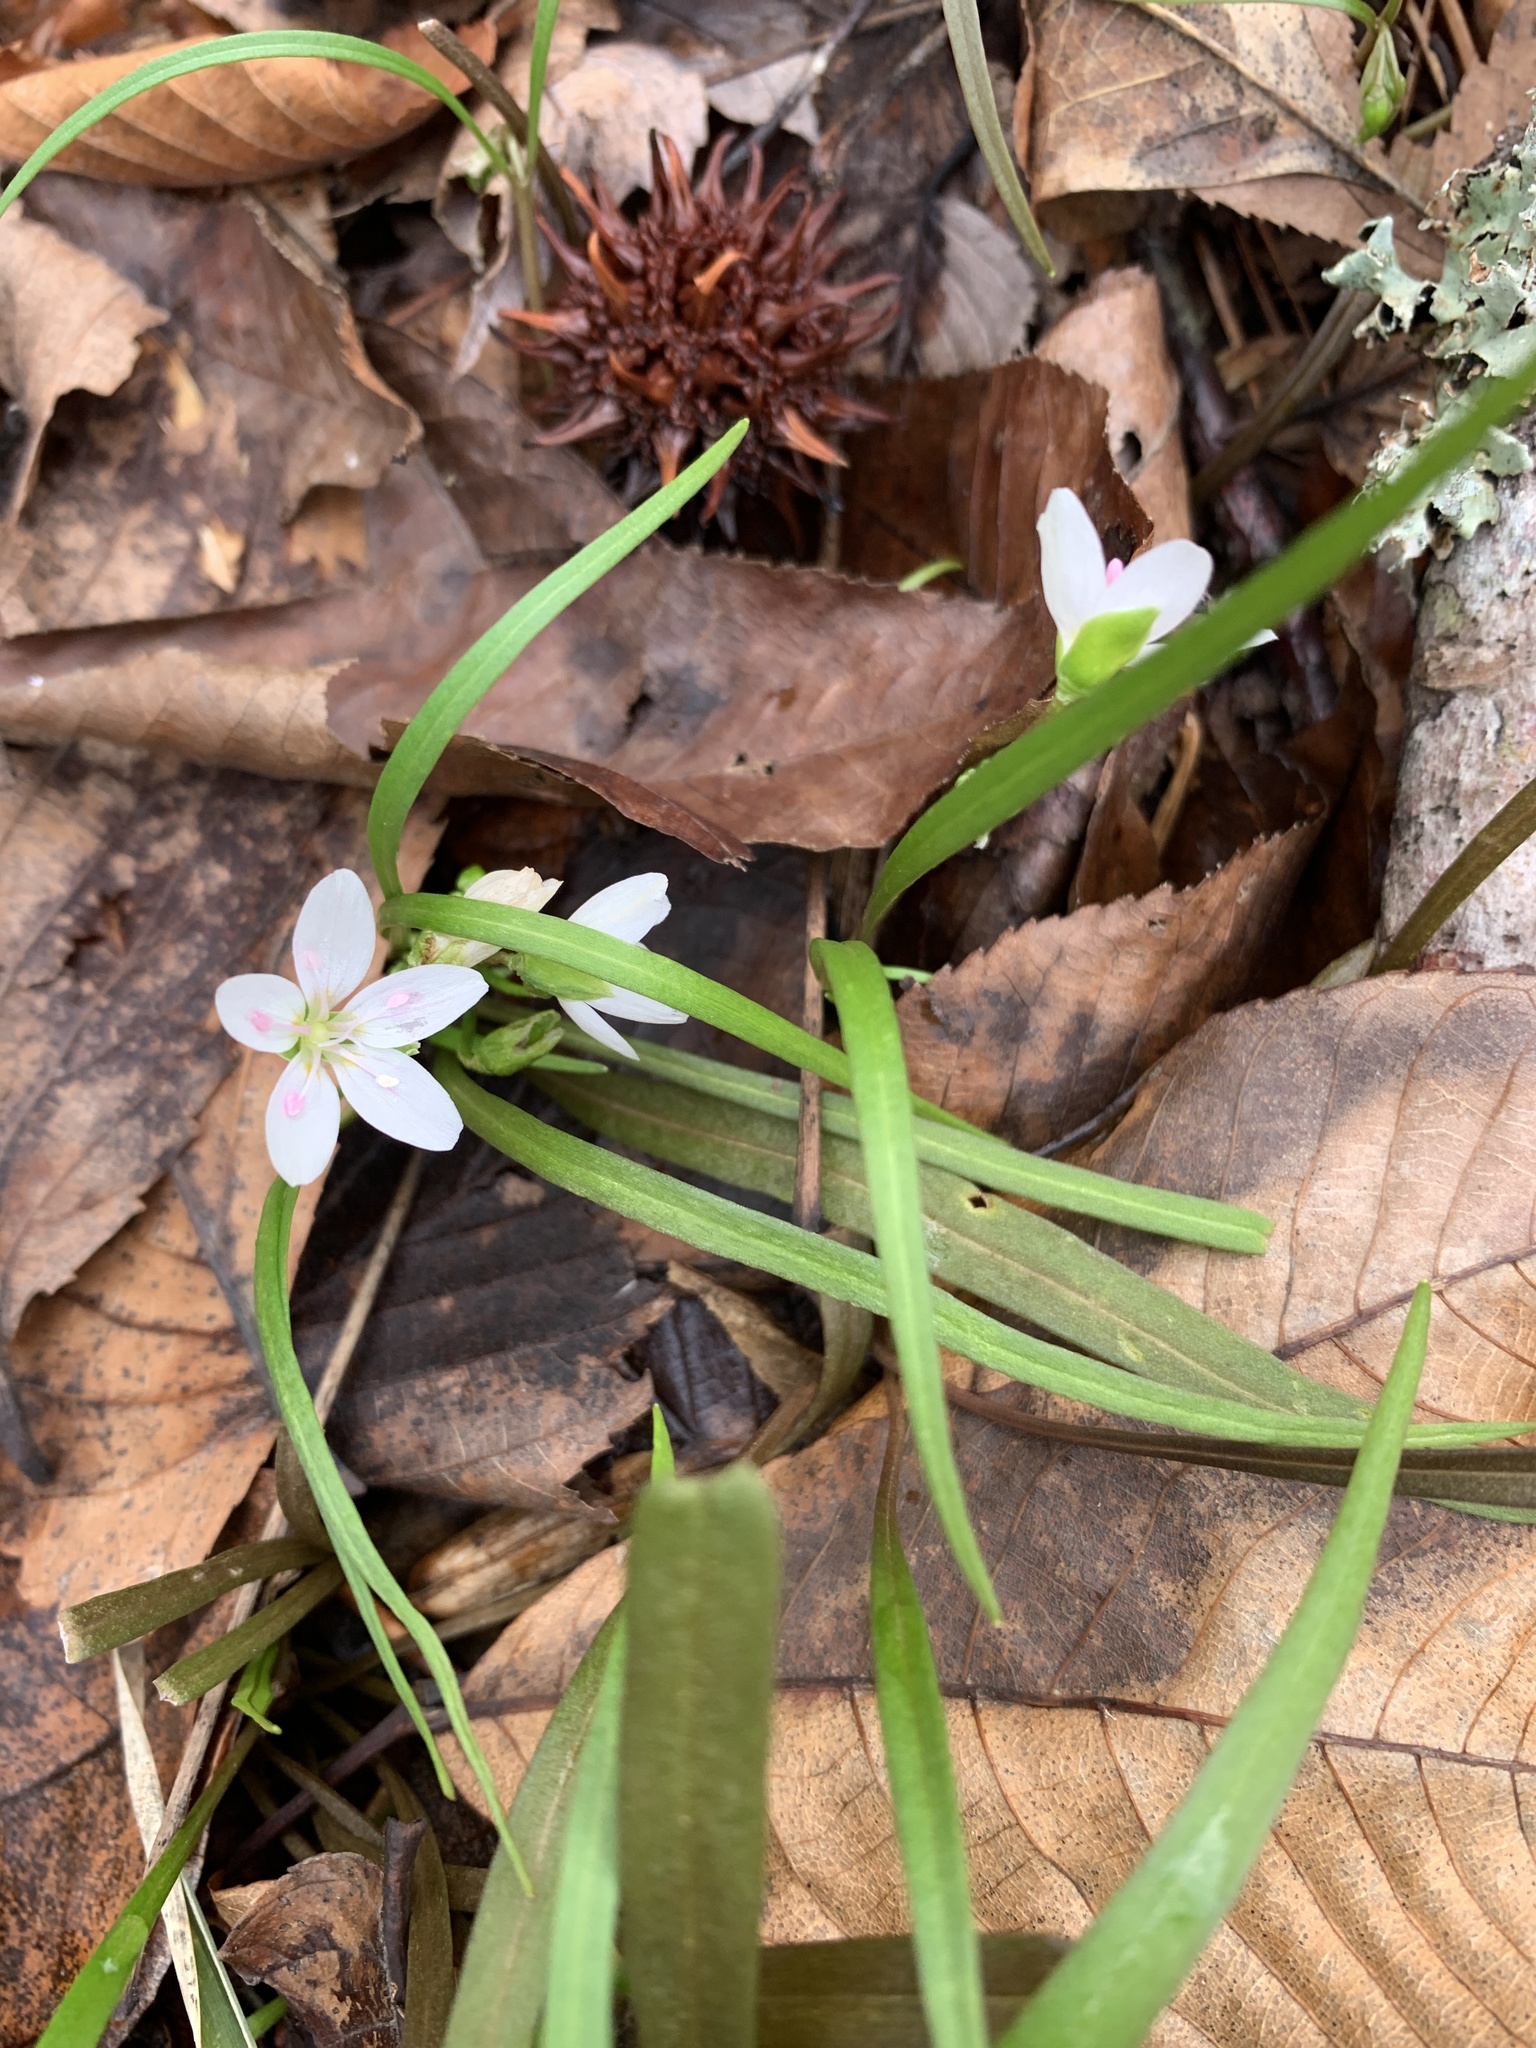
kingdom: Plantae
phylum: Tracheophyta
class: Magnoliopsida
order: Caryophyllales
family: Montiaceae
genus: Claytonia
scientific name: Claytonia virginica
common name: Virginia springbeauty
